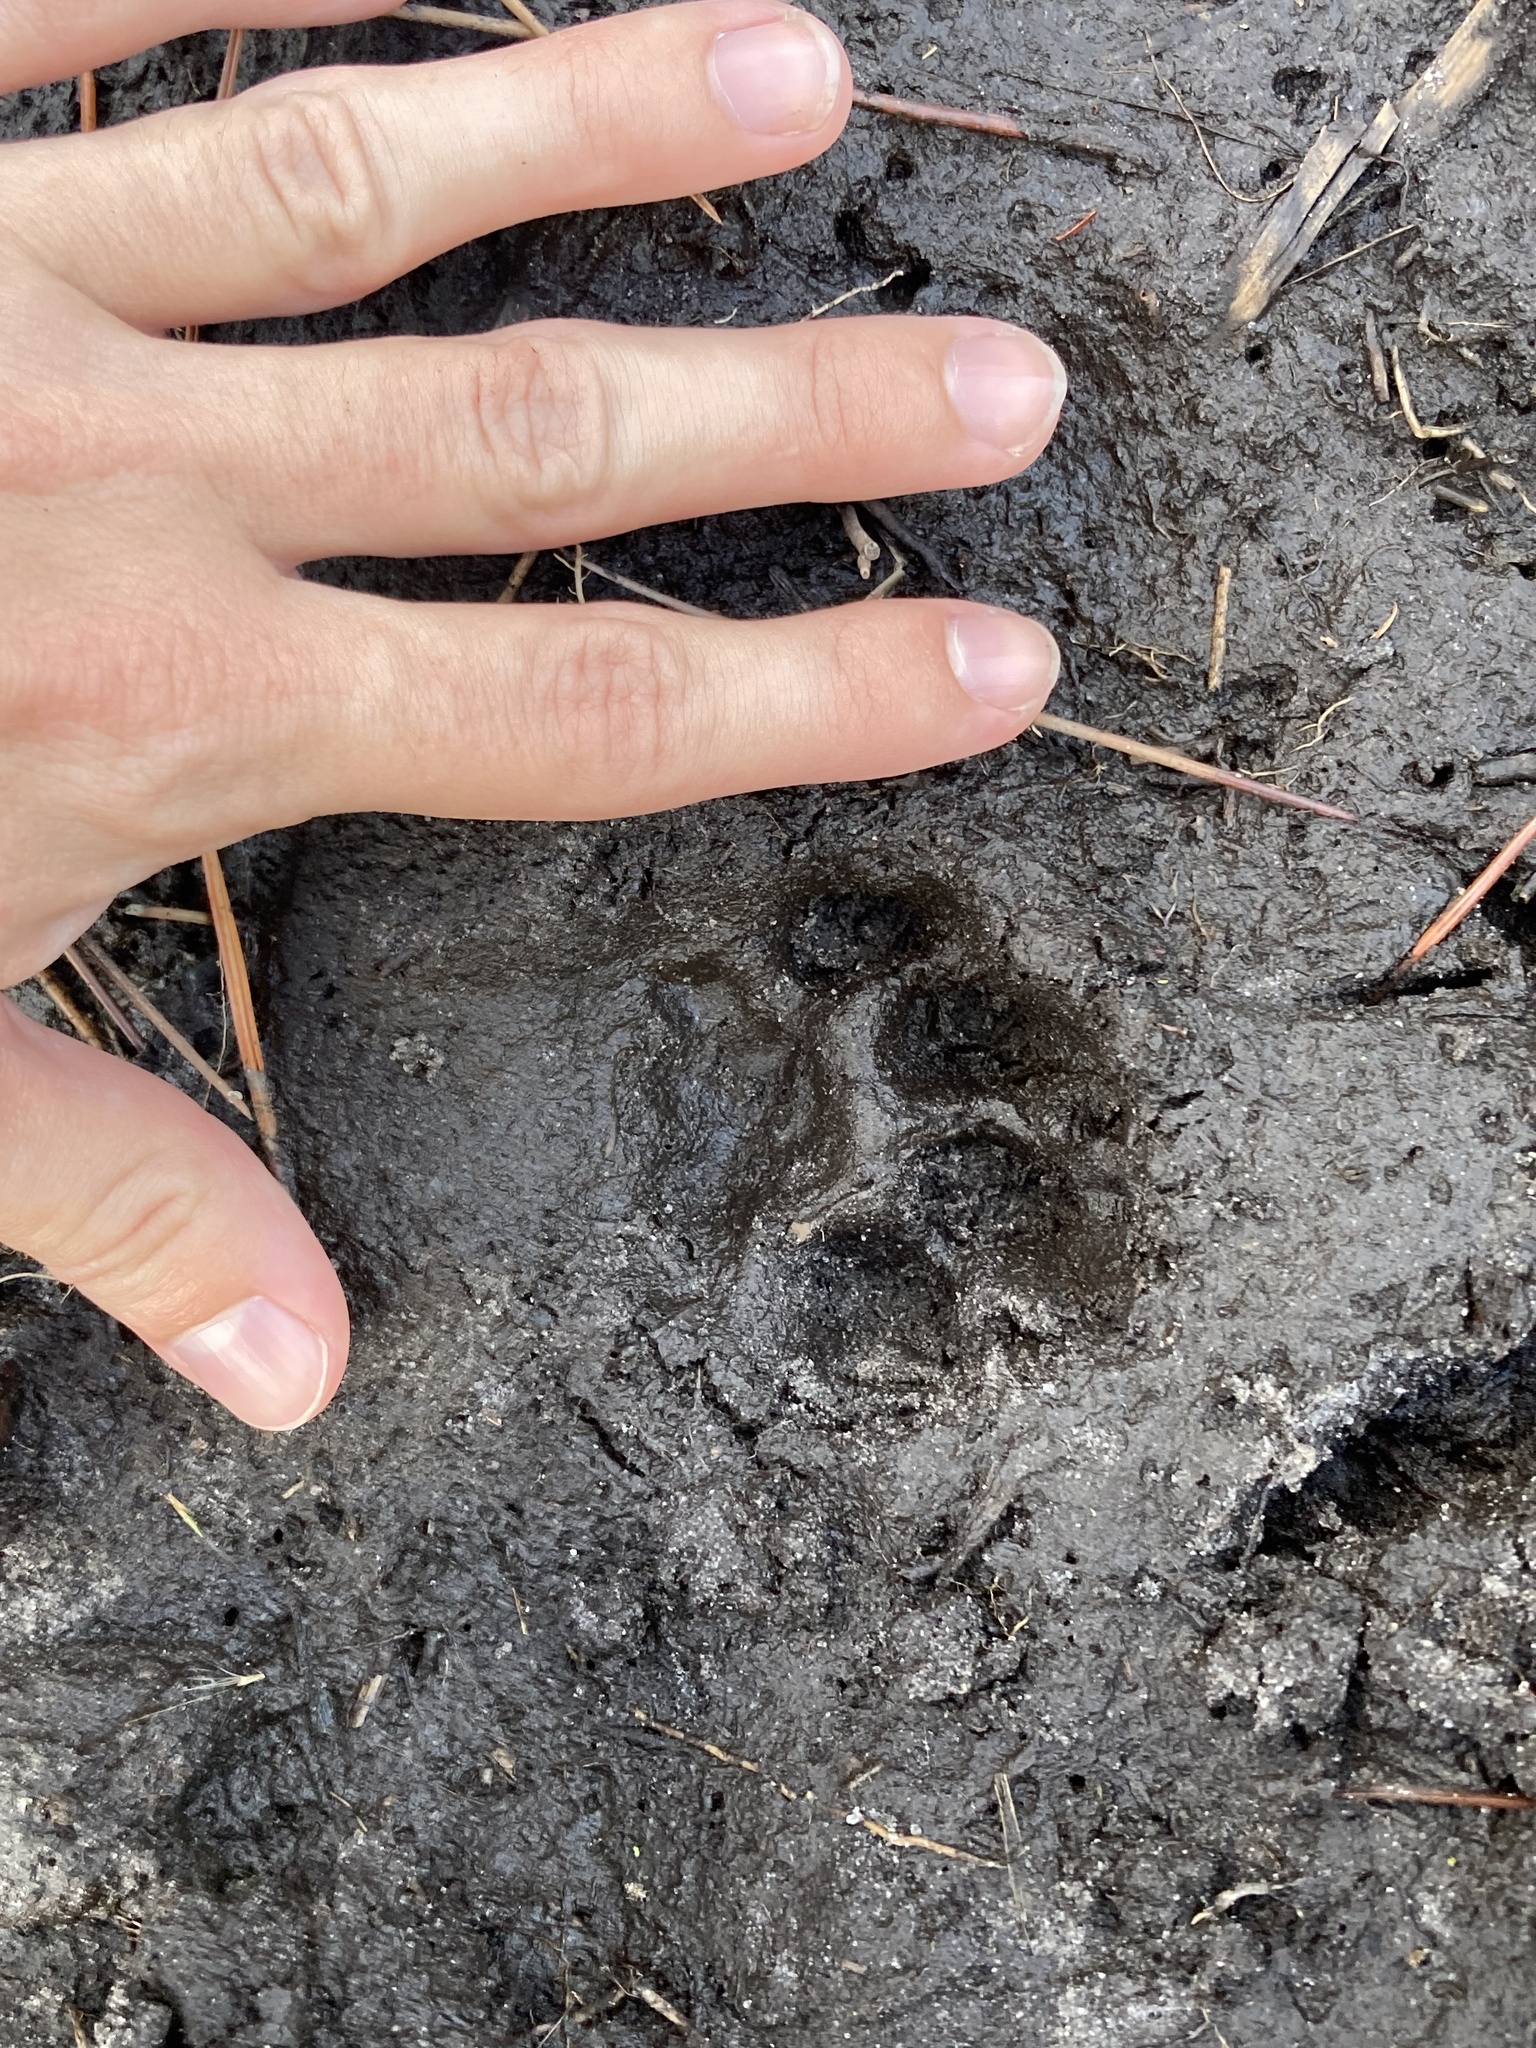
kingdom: Animalia
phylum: Chordata
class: Mammalia
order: Carnivora
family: Felidae
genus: Lynx
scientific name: Lynx rufus
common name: Bobcat
